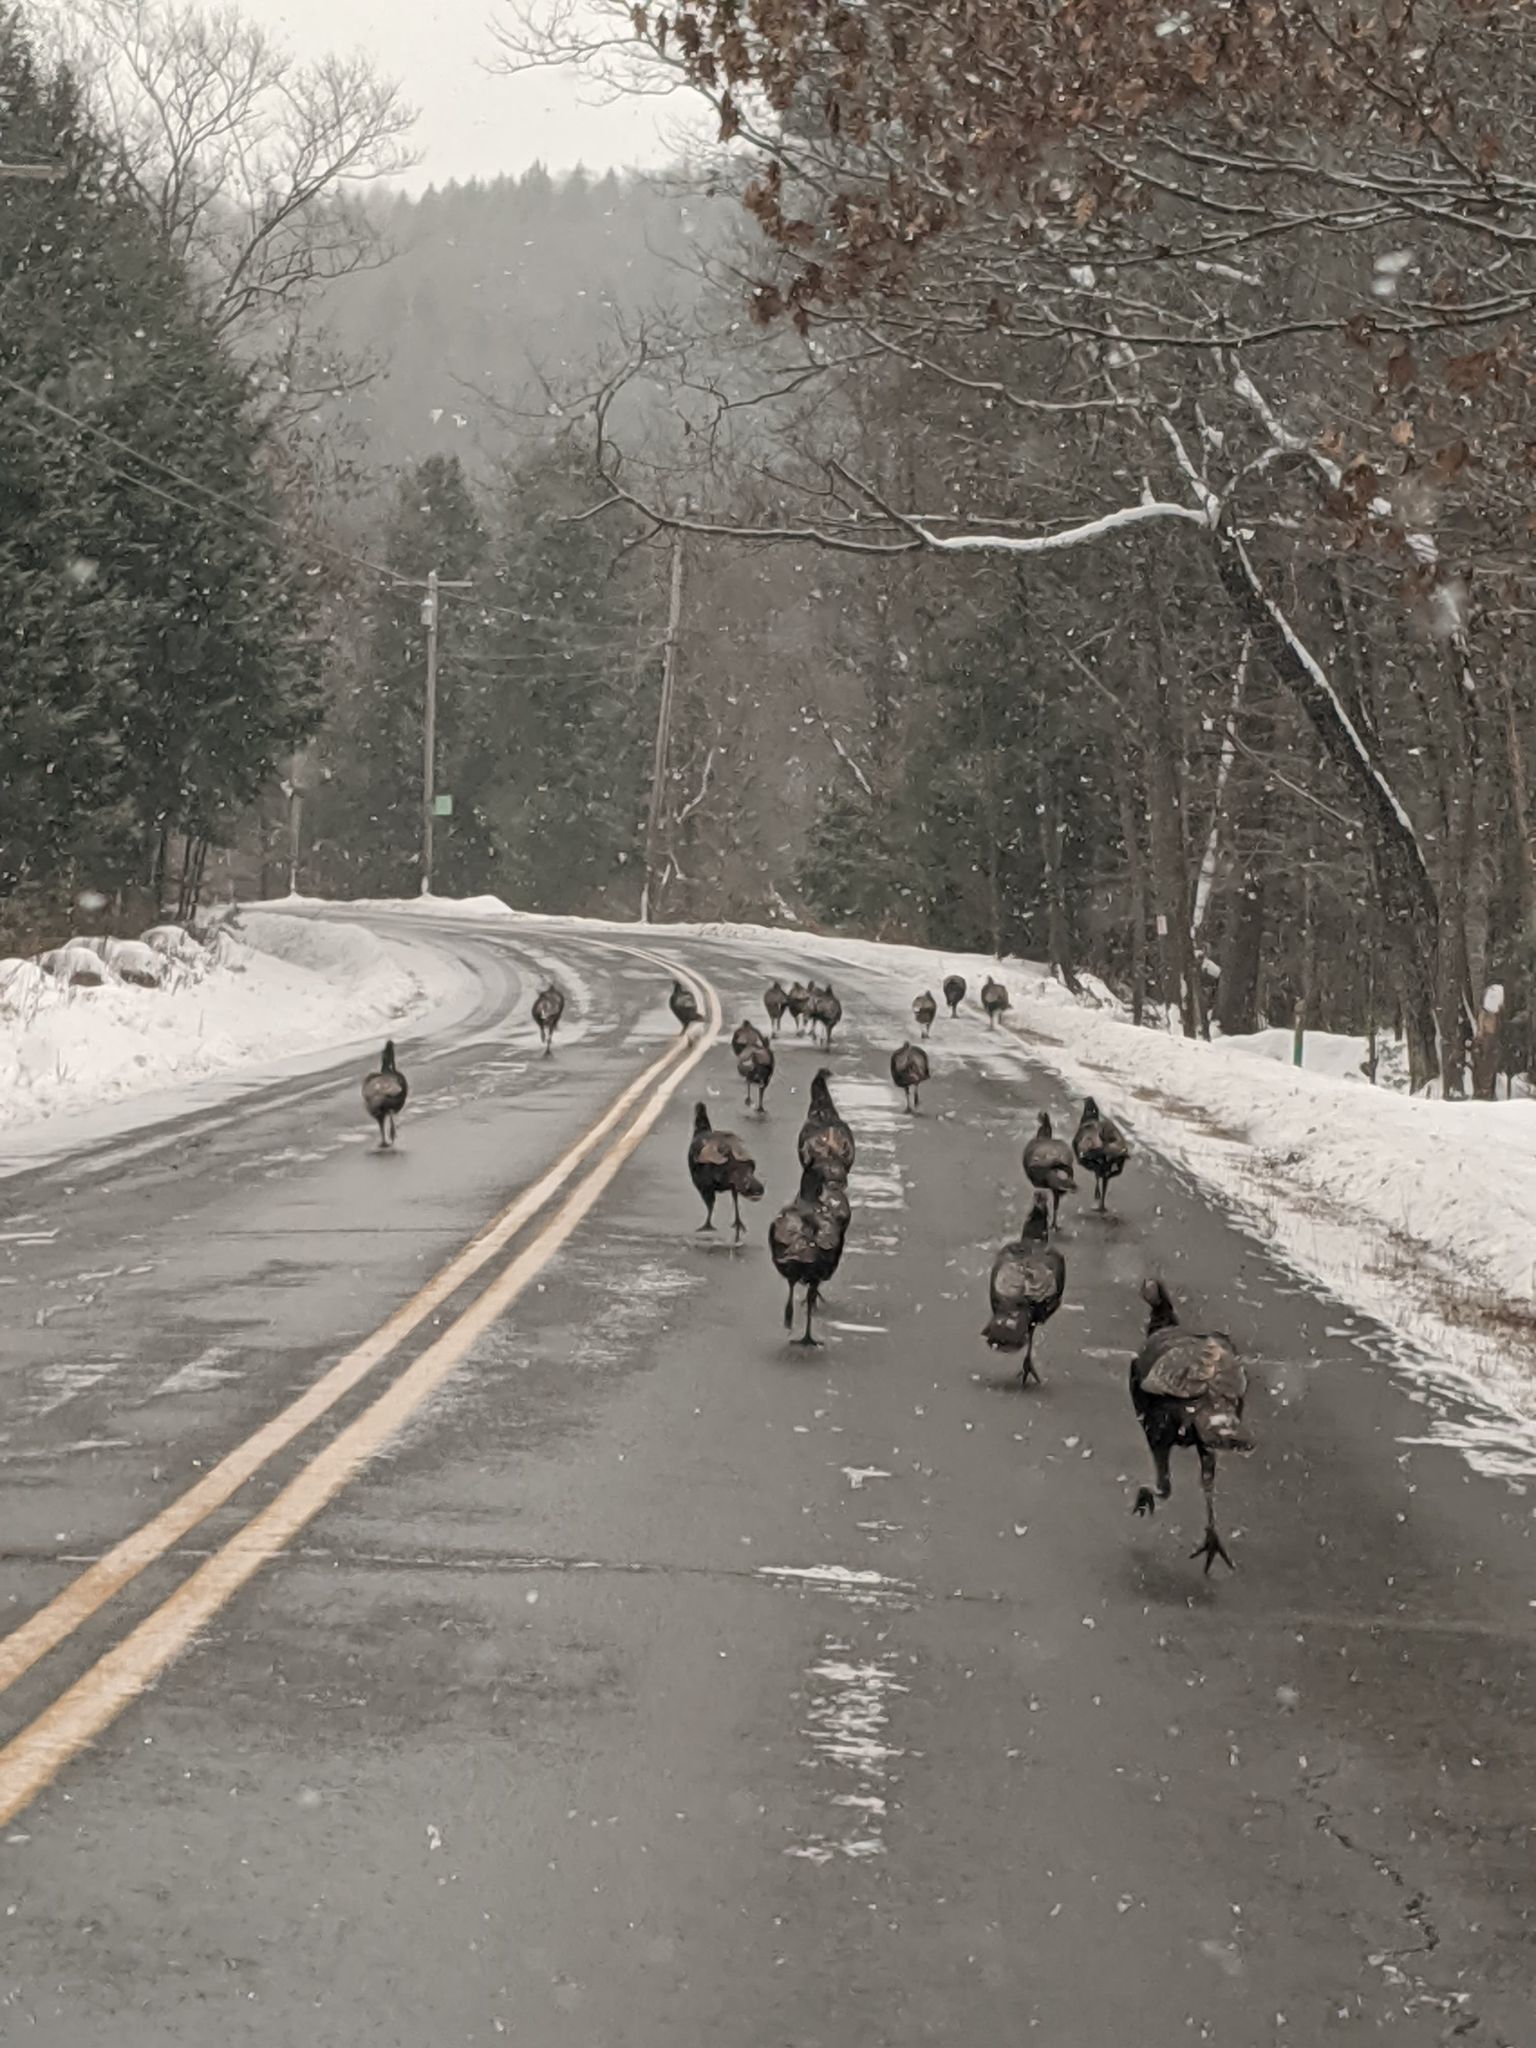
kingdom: Animalia
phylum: Chordata
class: Aves
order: Galliformes
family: Phasianidae
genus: Meleagris
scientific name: Meleagris gallopavo
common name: Wild turkey
